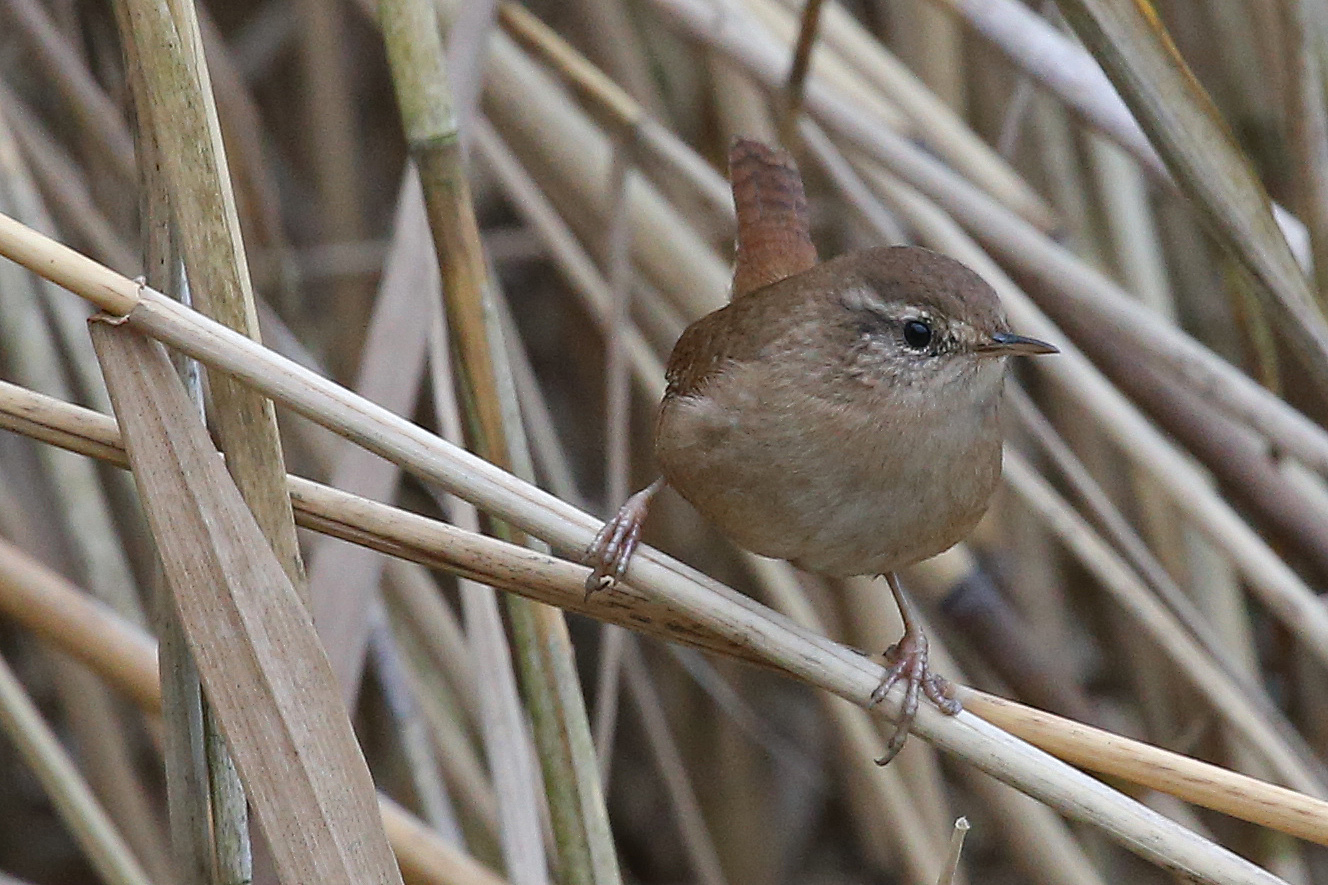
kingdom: Animalia
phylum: Chordata
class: Aves
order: Passeriformes
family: Troglodytidae
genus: Troglodytes
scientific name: Troglodytes troglodytes
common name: Eurasian wren
